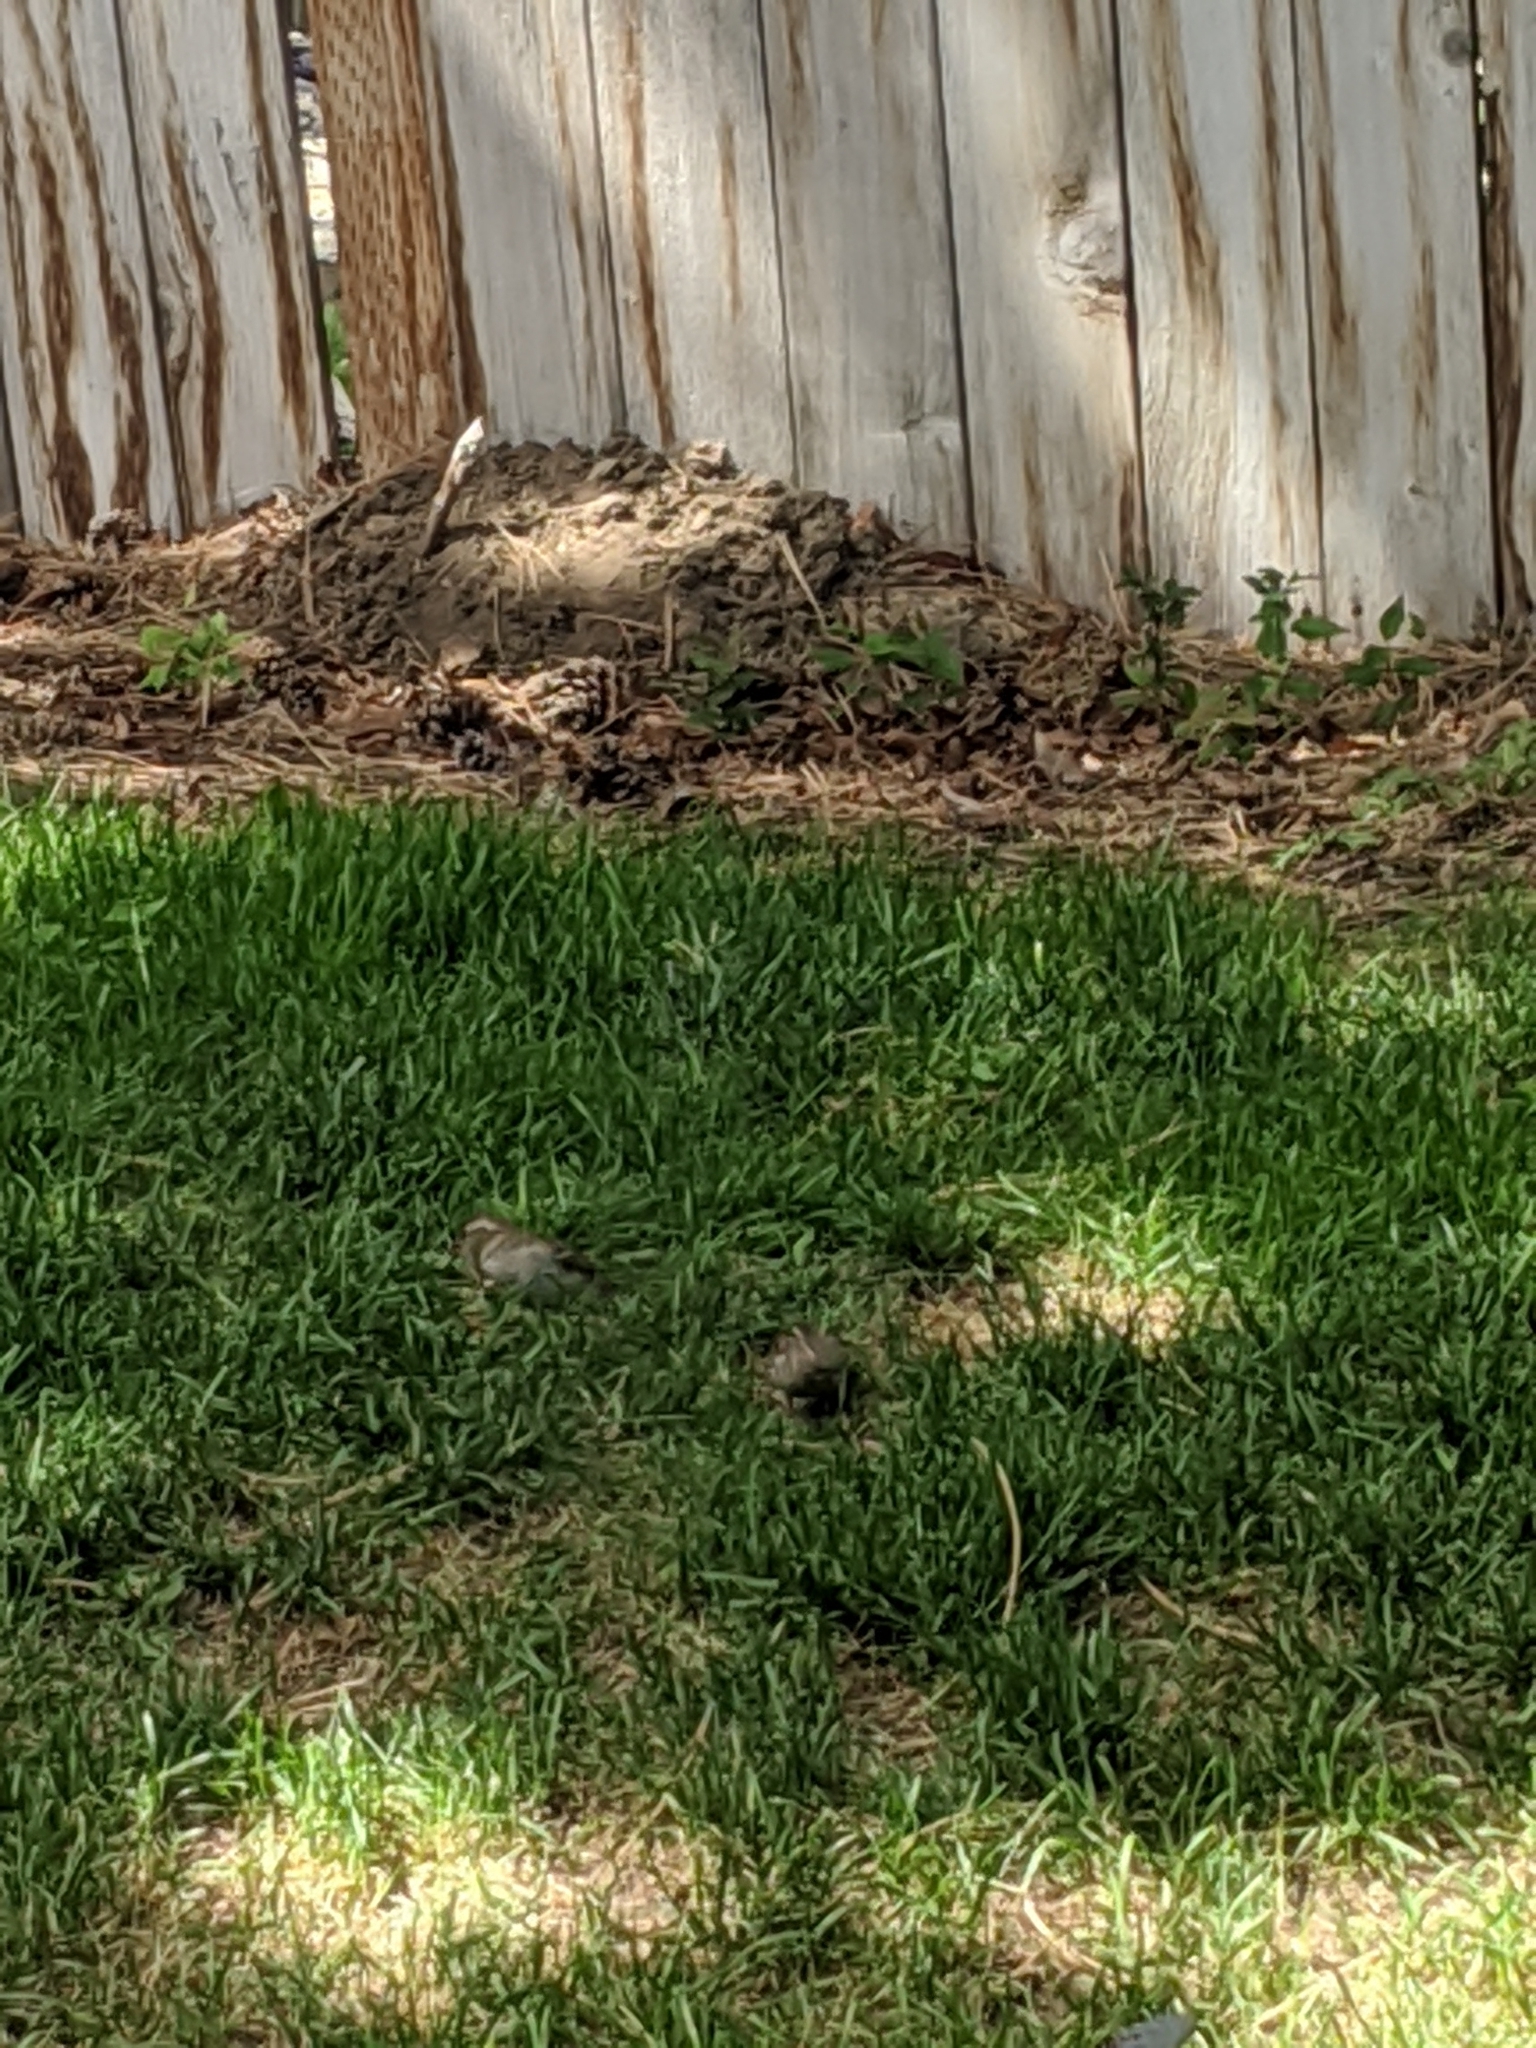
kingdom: Animalia
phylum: Chordata
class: Aves
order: Passeriformes
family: Passeridae
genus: Passer
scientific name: Passer domesticus
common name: House sparrow
